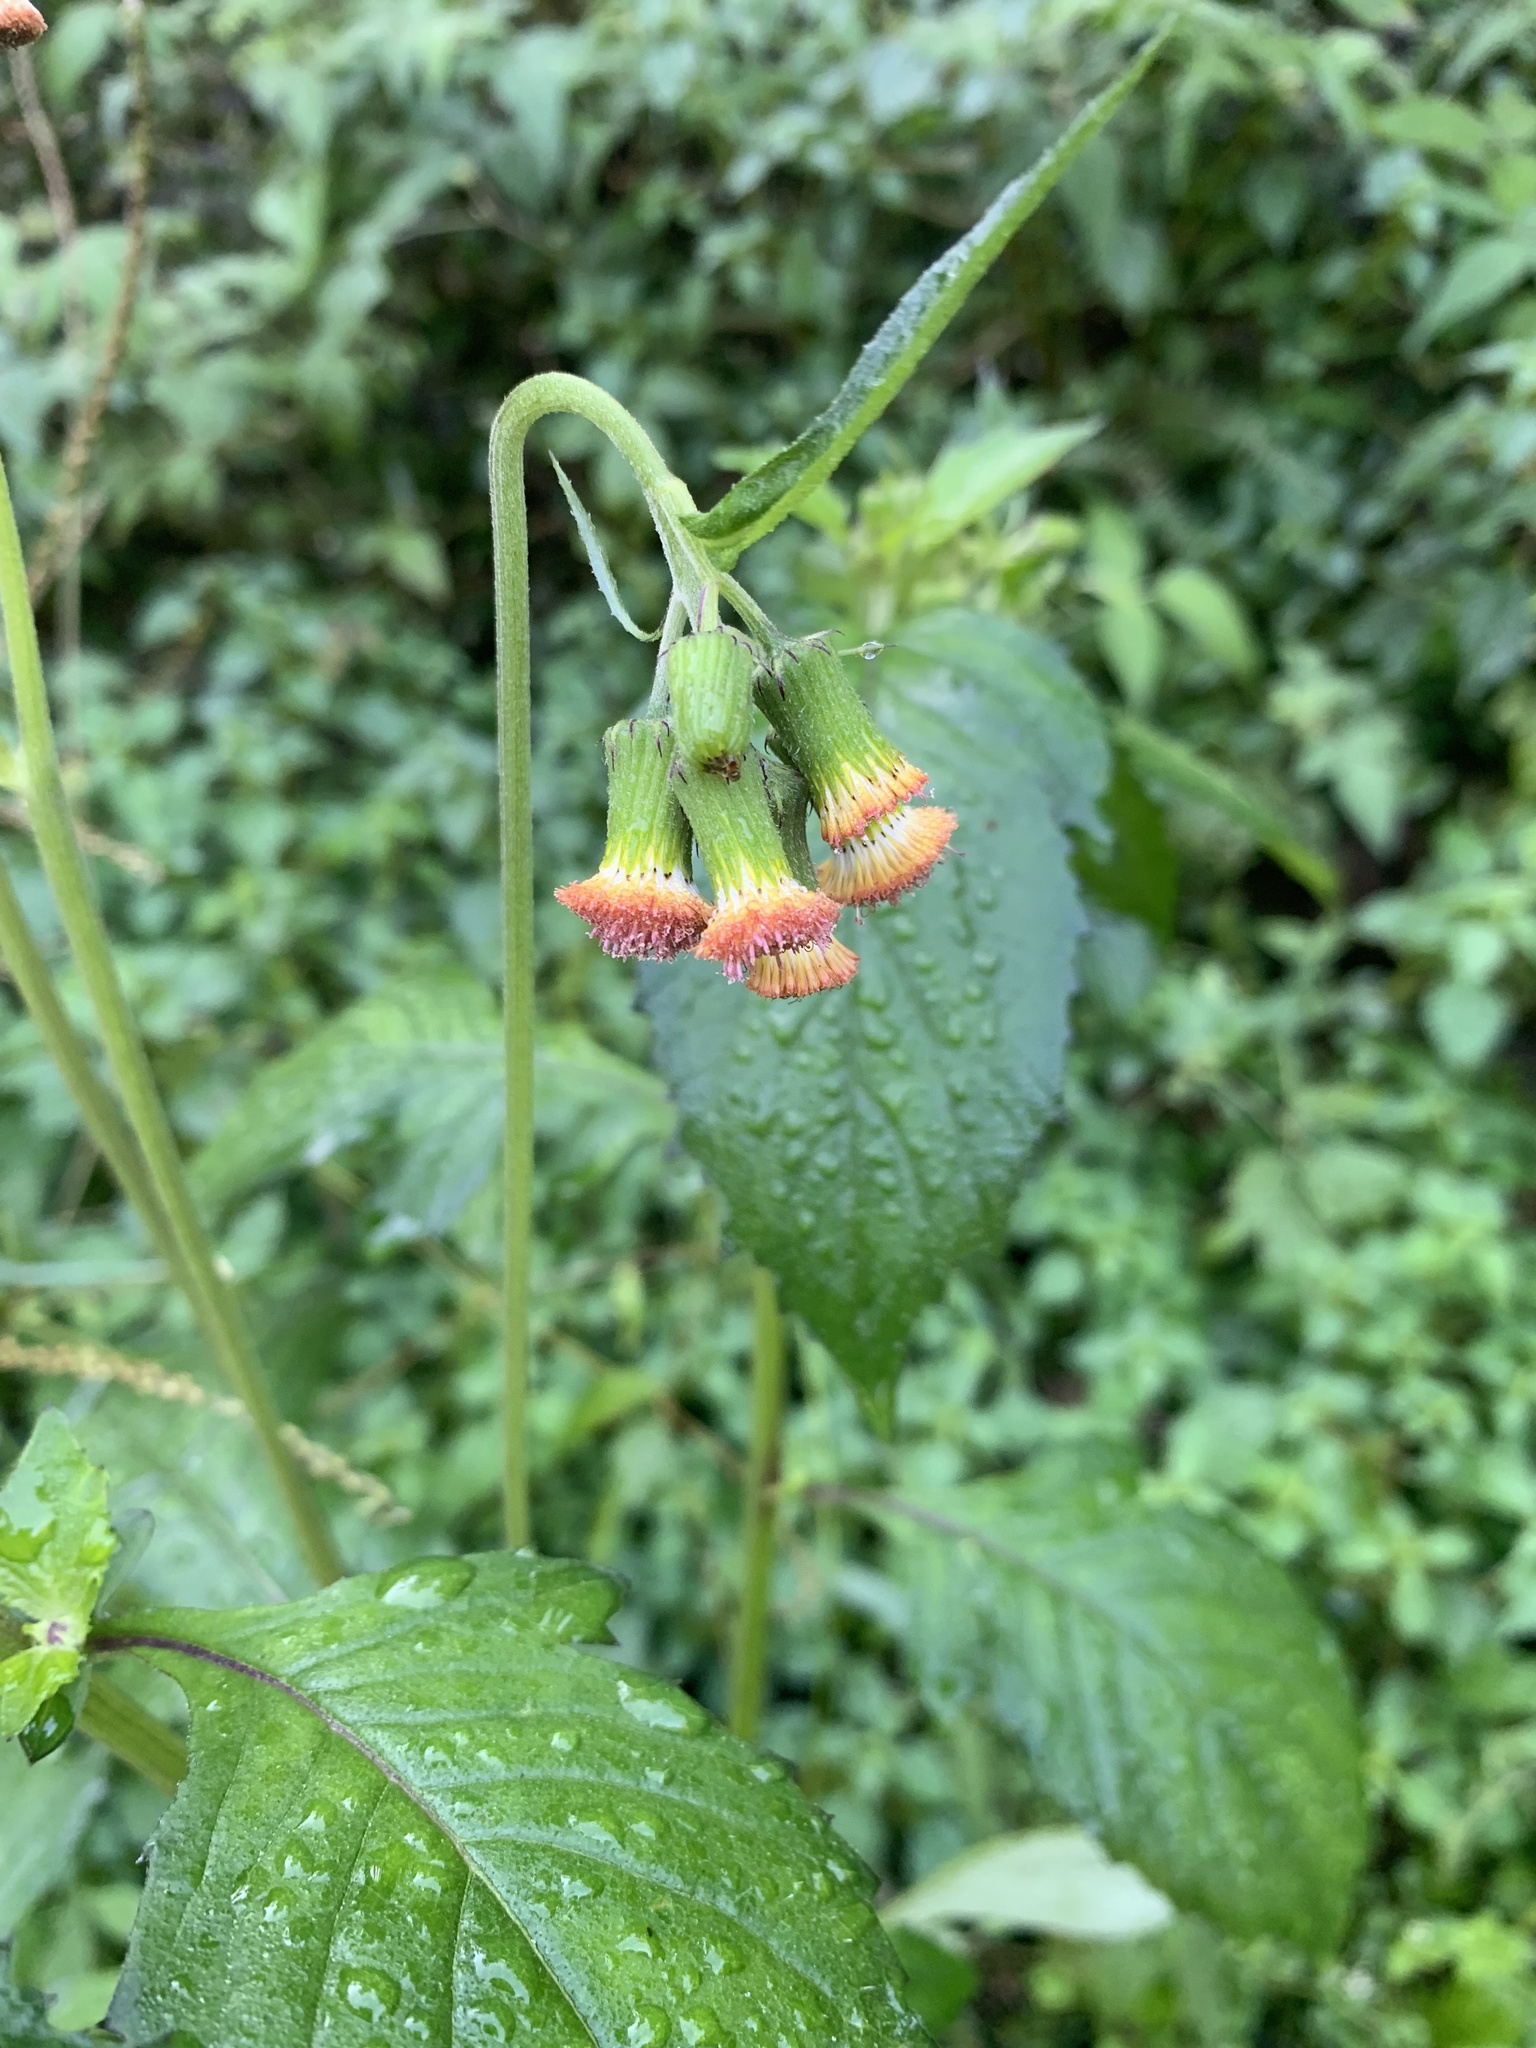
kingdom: Plantae
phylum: Tracheophyta
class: Magnoliopsida
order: Asterales
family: Asteraceae
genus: Crassocephalum
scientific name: Crassocephalum crepidioides
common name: Redflower ragleaf
